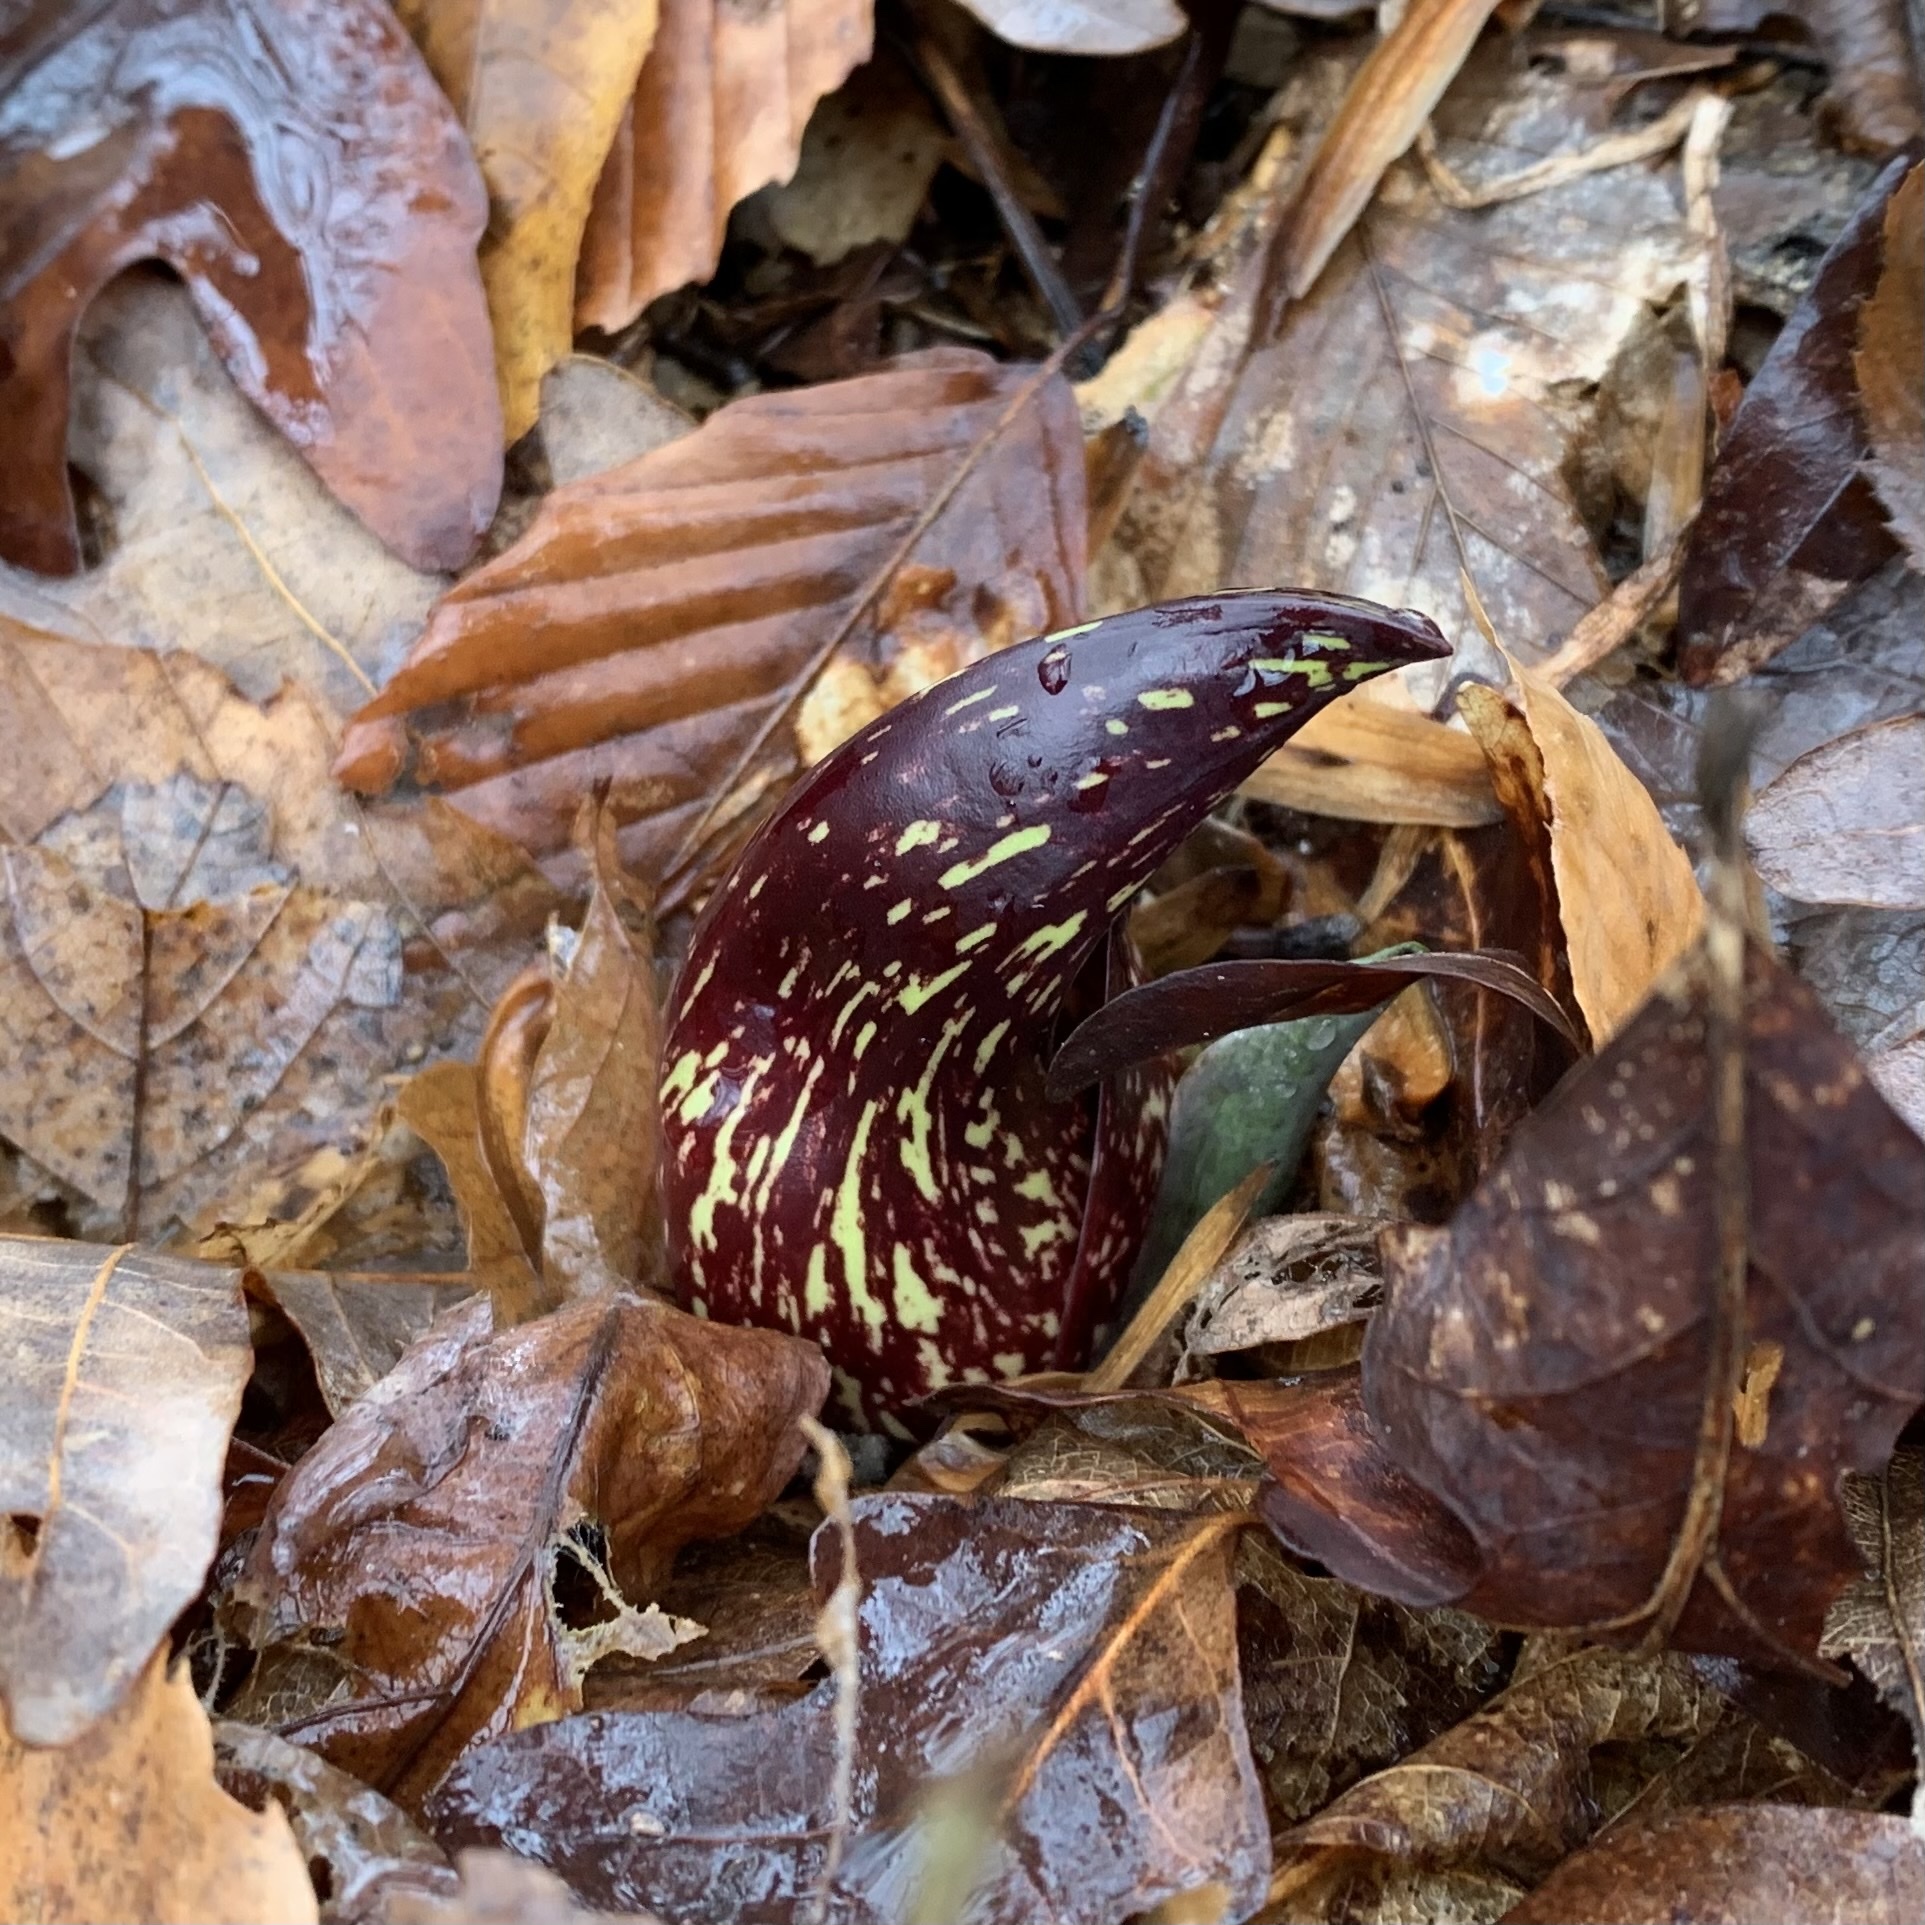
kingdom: Plantae
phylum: Tracheophyta
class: Liliopsida
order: Alismatales
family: Araceae
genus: Symplocarpus
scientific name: Symplocarpus foetidus
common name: Eastern skunk cabbage
